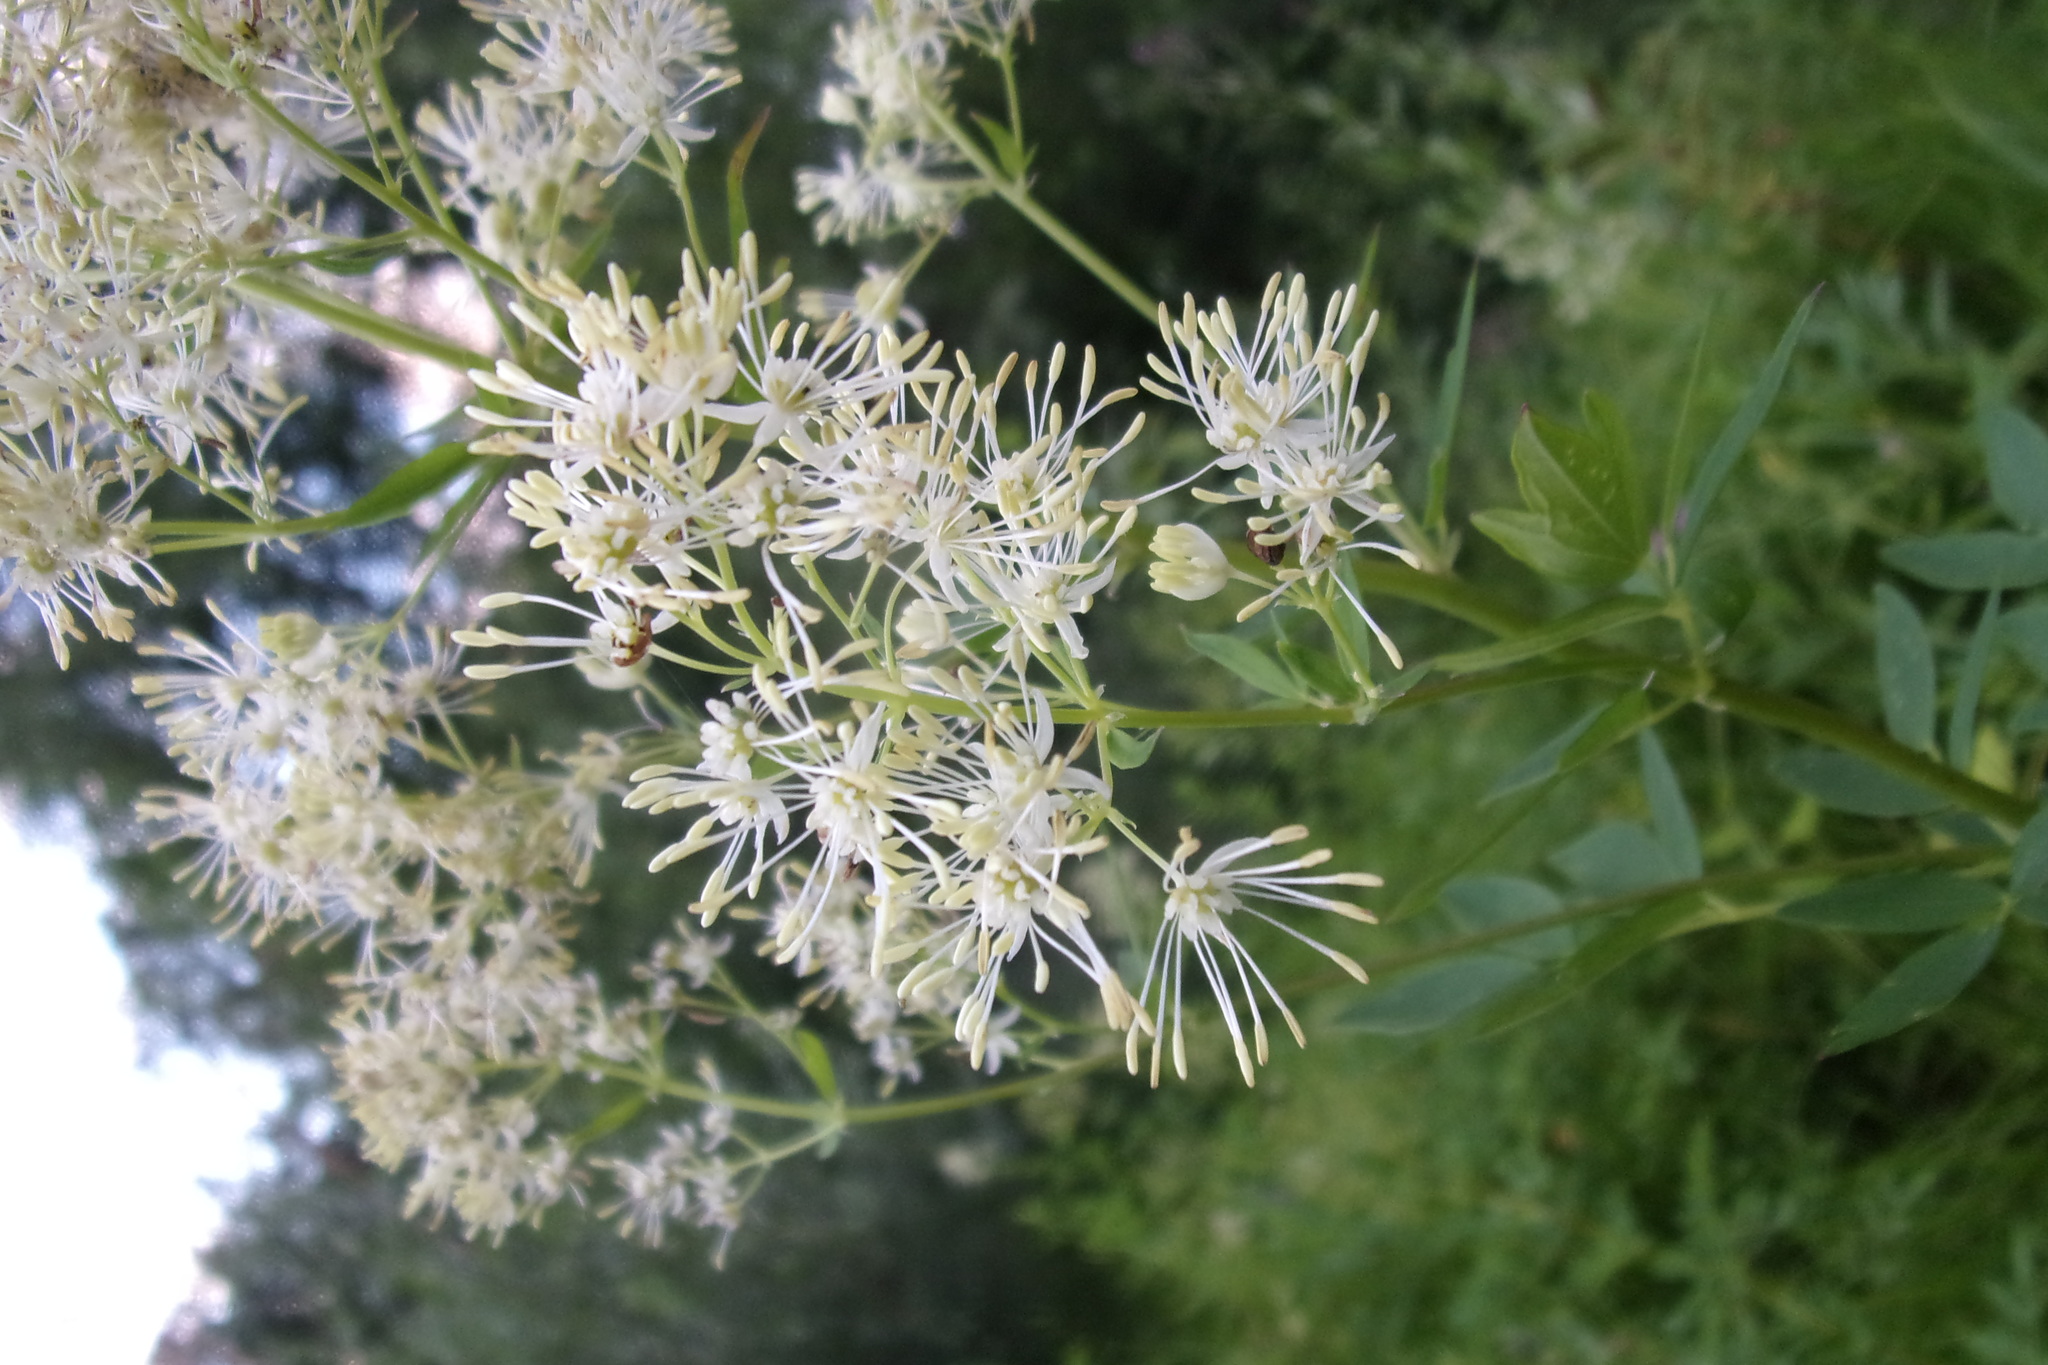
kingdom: Plantae
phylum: Tracheophyta
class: Magnoliopsida
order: Ranunculales
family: Ranunculaceae
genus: Thalictrum
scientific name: Thalictrum flavum
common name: Common meadow-rue
